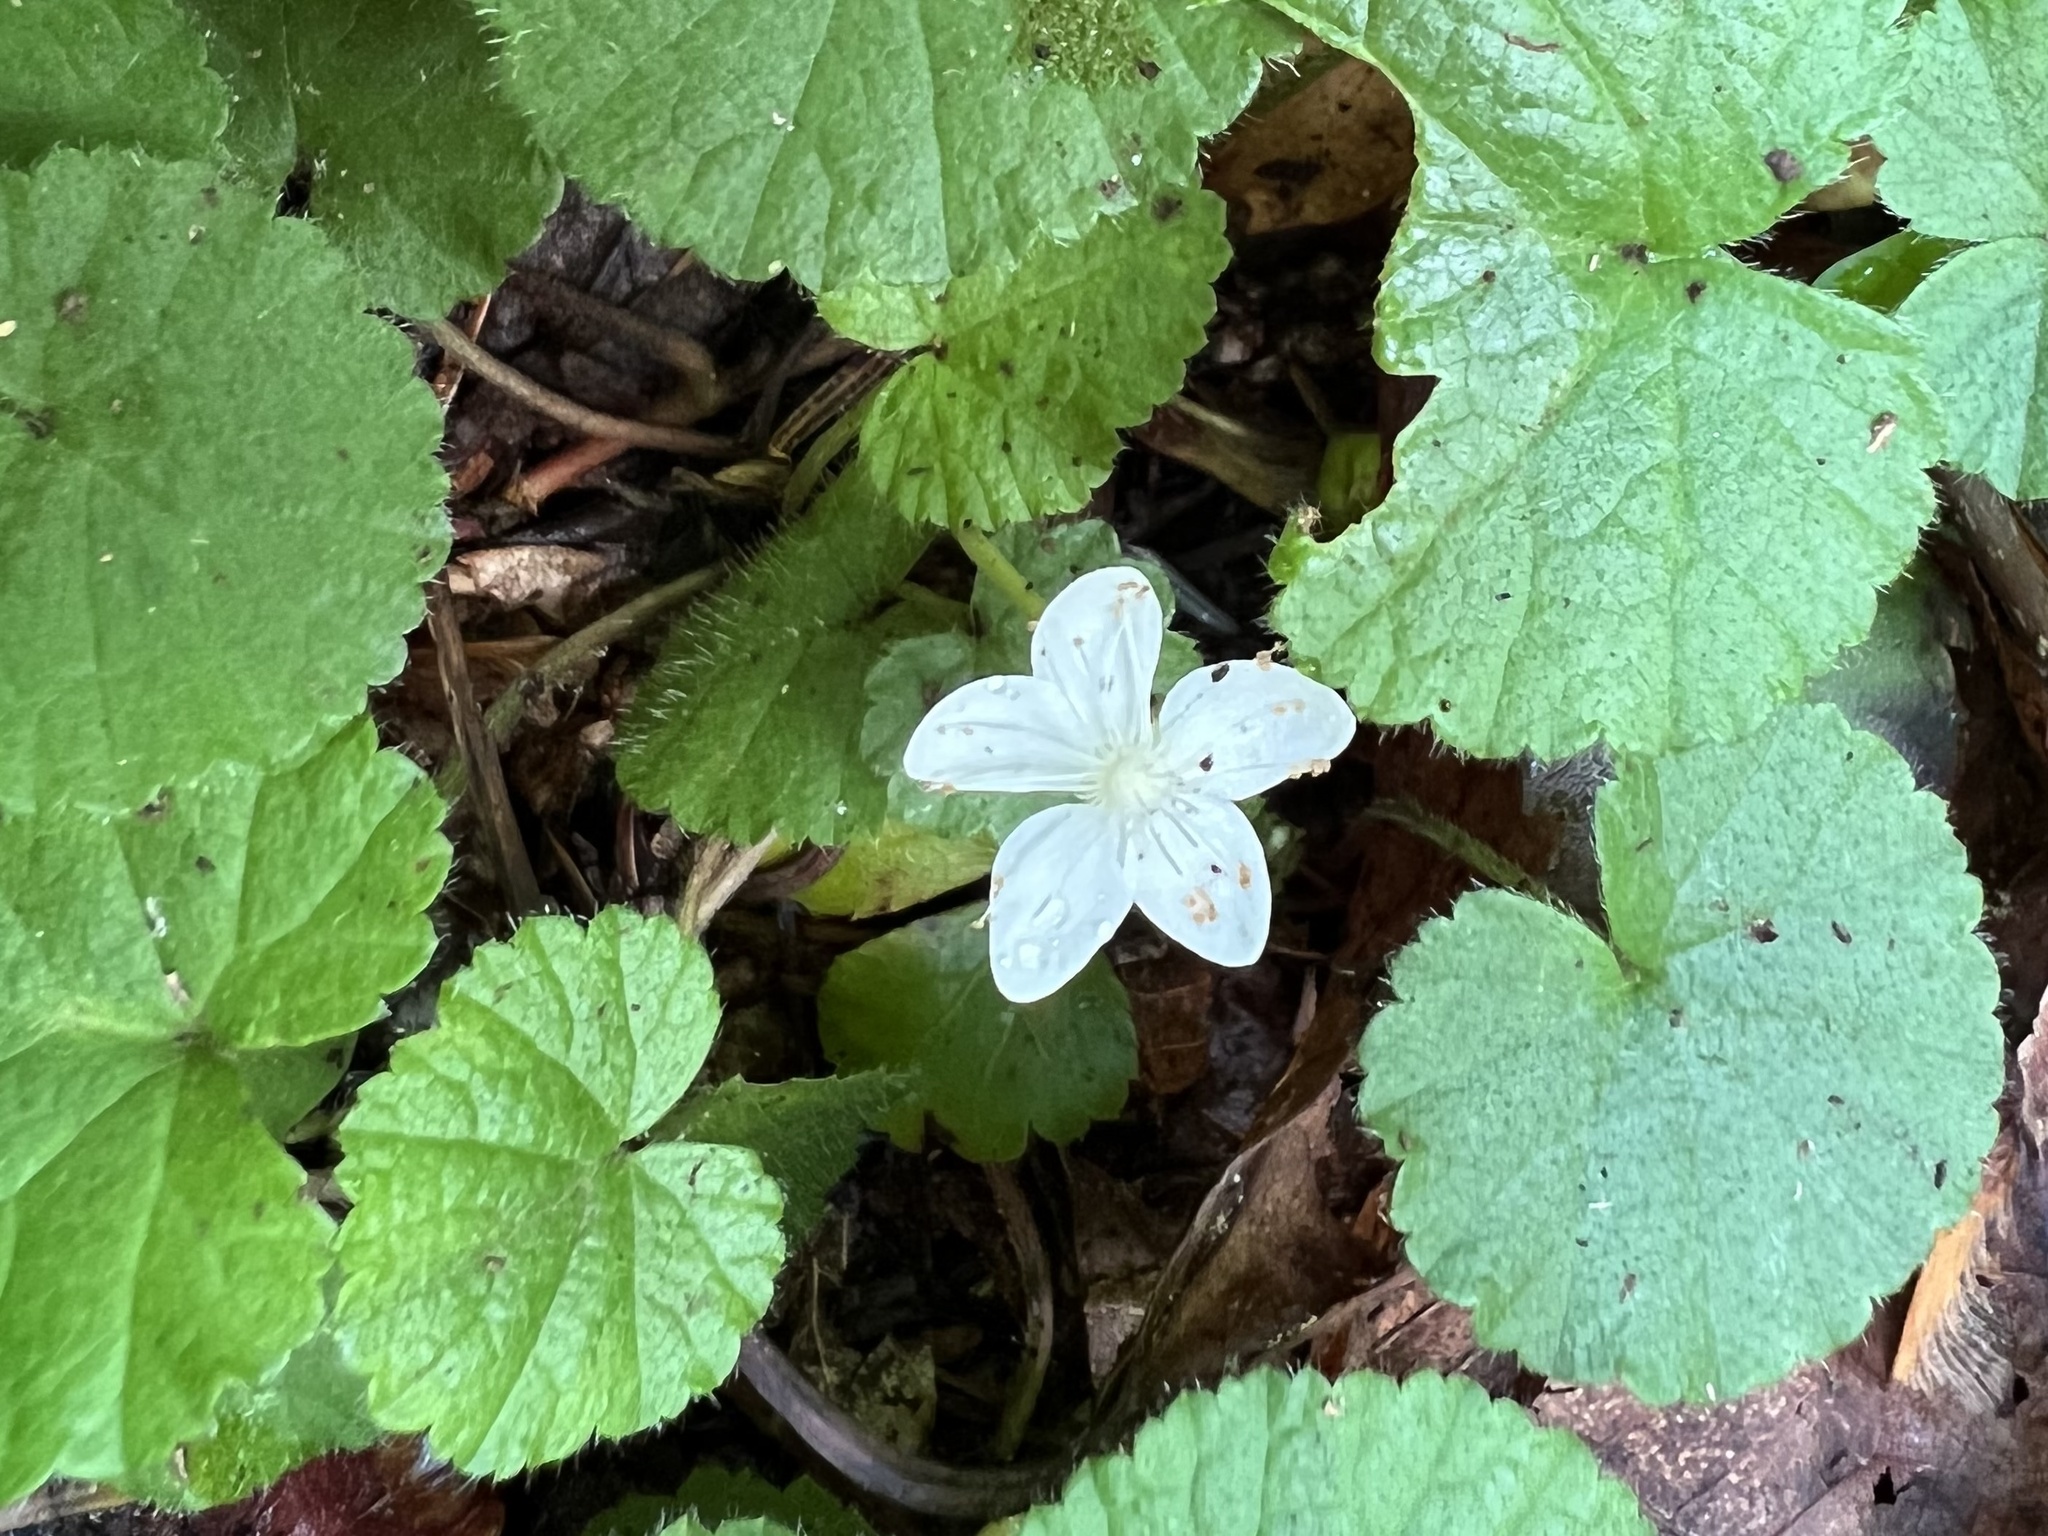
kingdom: Plantae
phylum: Tracheophyta
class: Magnoliopsida
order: Rosales
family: Rosaceae
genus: Dalibarda
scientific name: Dalibarda repens
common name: Dewdrop
